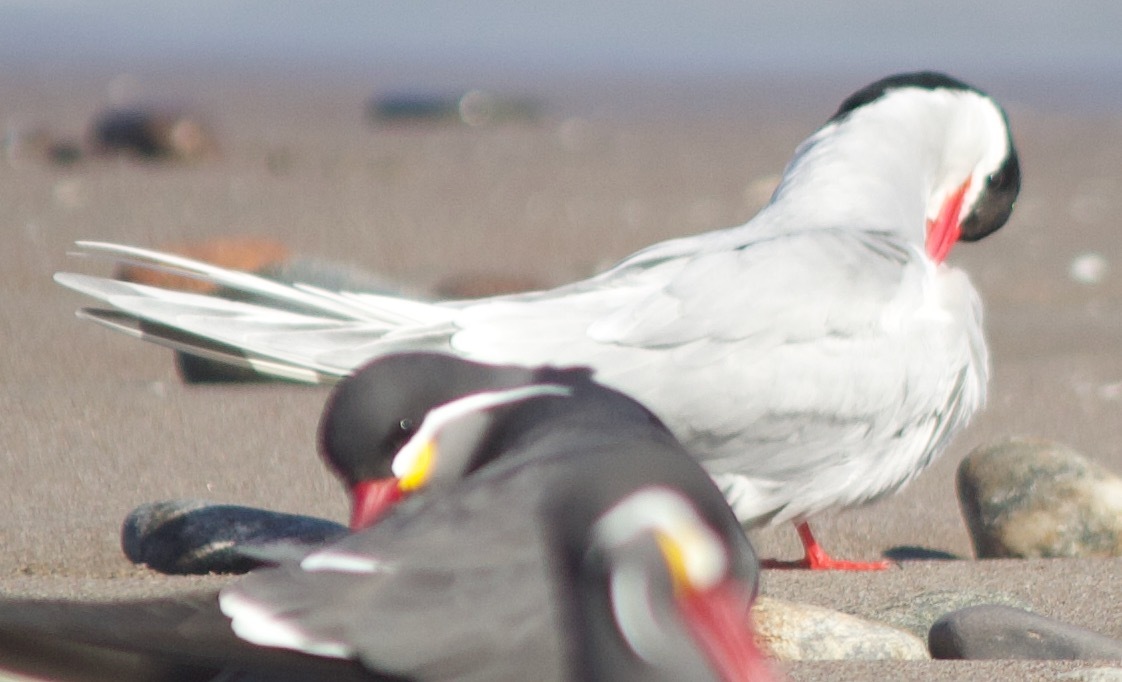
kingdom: Animalia
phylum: Chordata
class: Aves
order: Charadriiformes
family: Laridae
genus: Sterna
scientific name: Sterna hirundinacea
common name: South american tern
